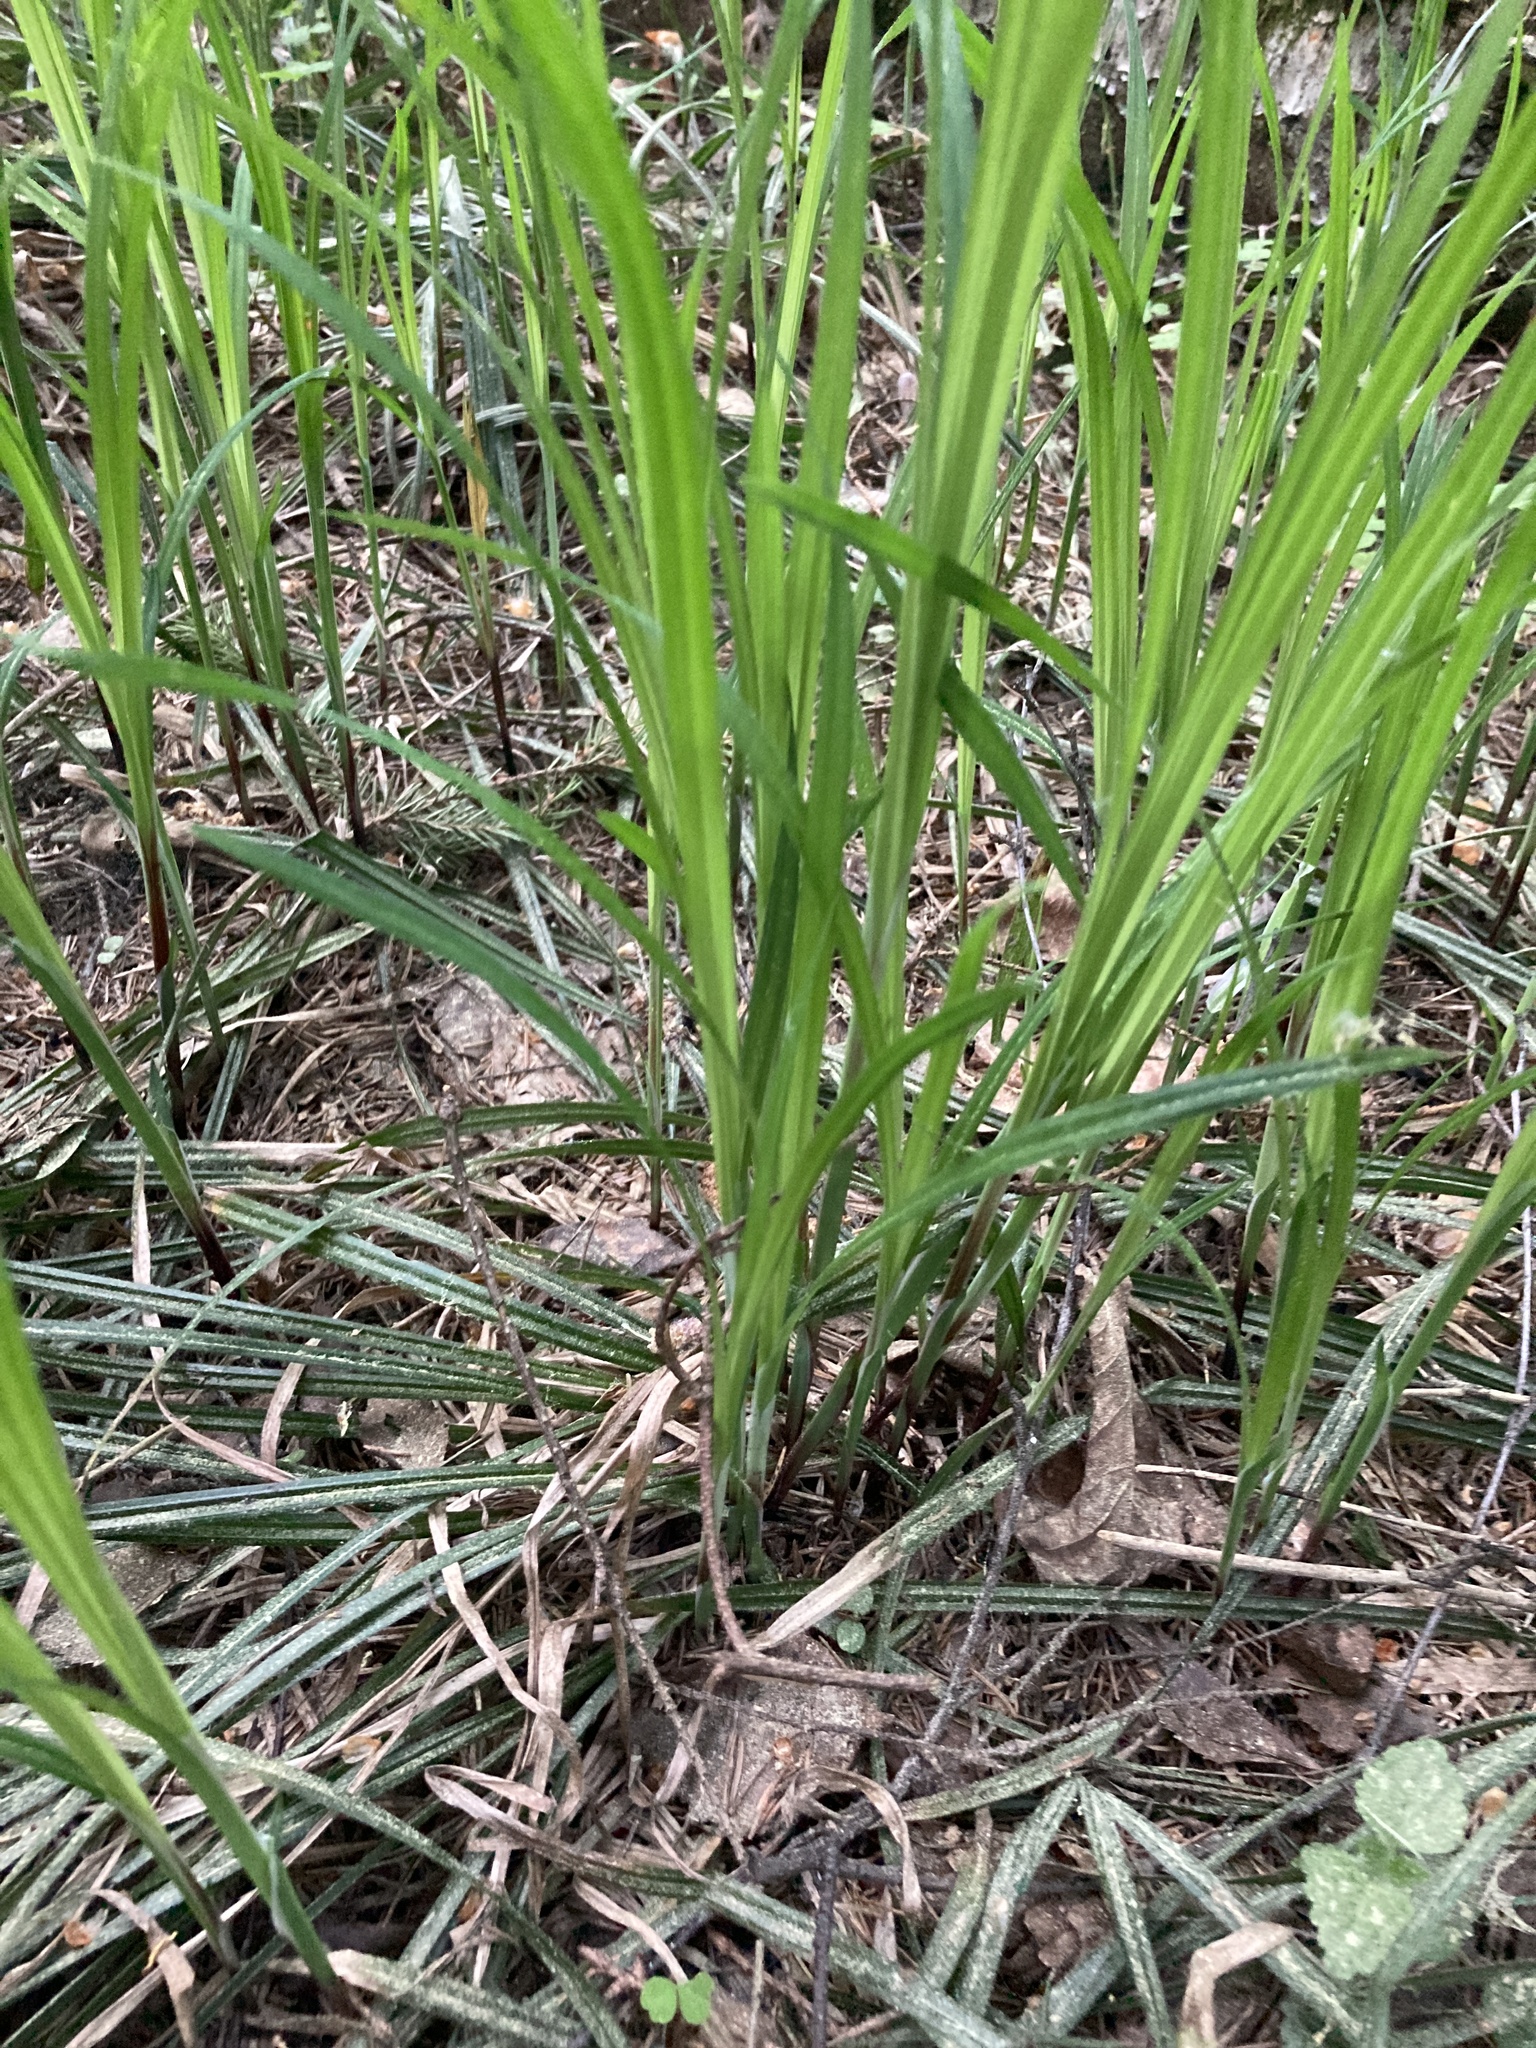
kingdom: Plantae
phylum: Tracheophyta
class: Liliopsida
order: Poales
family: Cyperaceae
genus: Carex
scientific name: Carex pilosa
